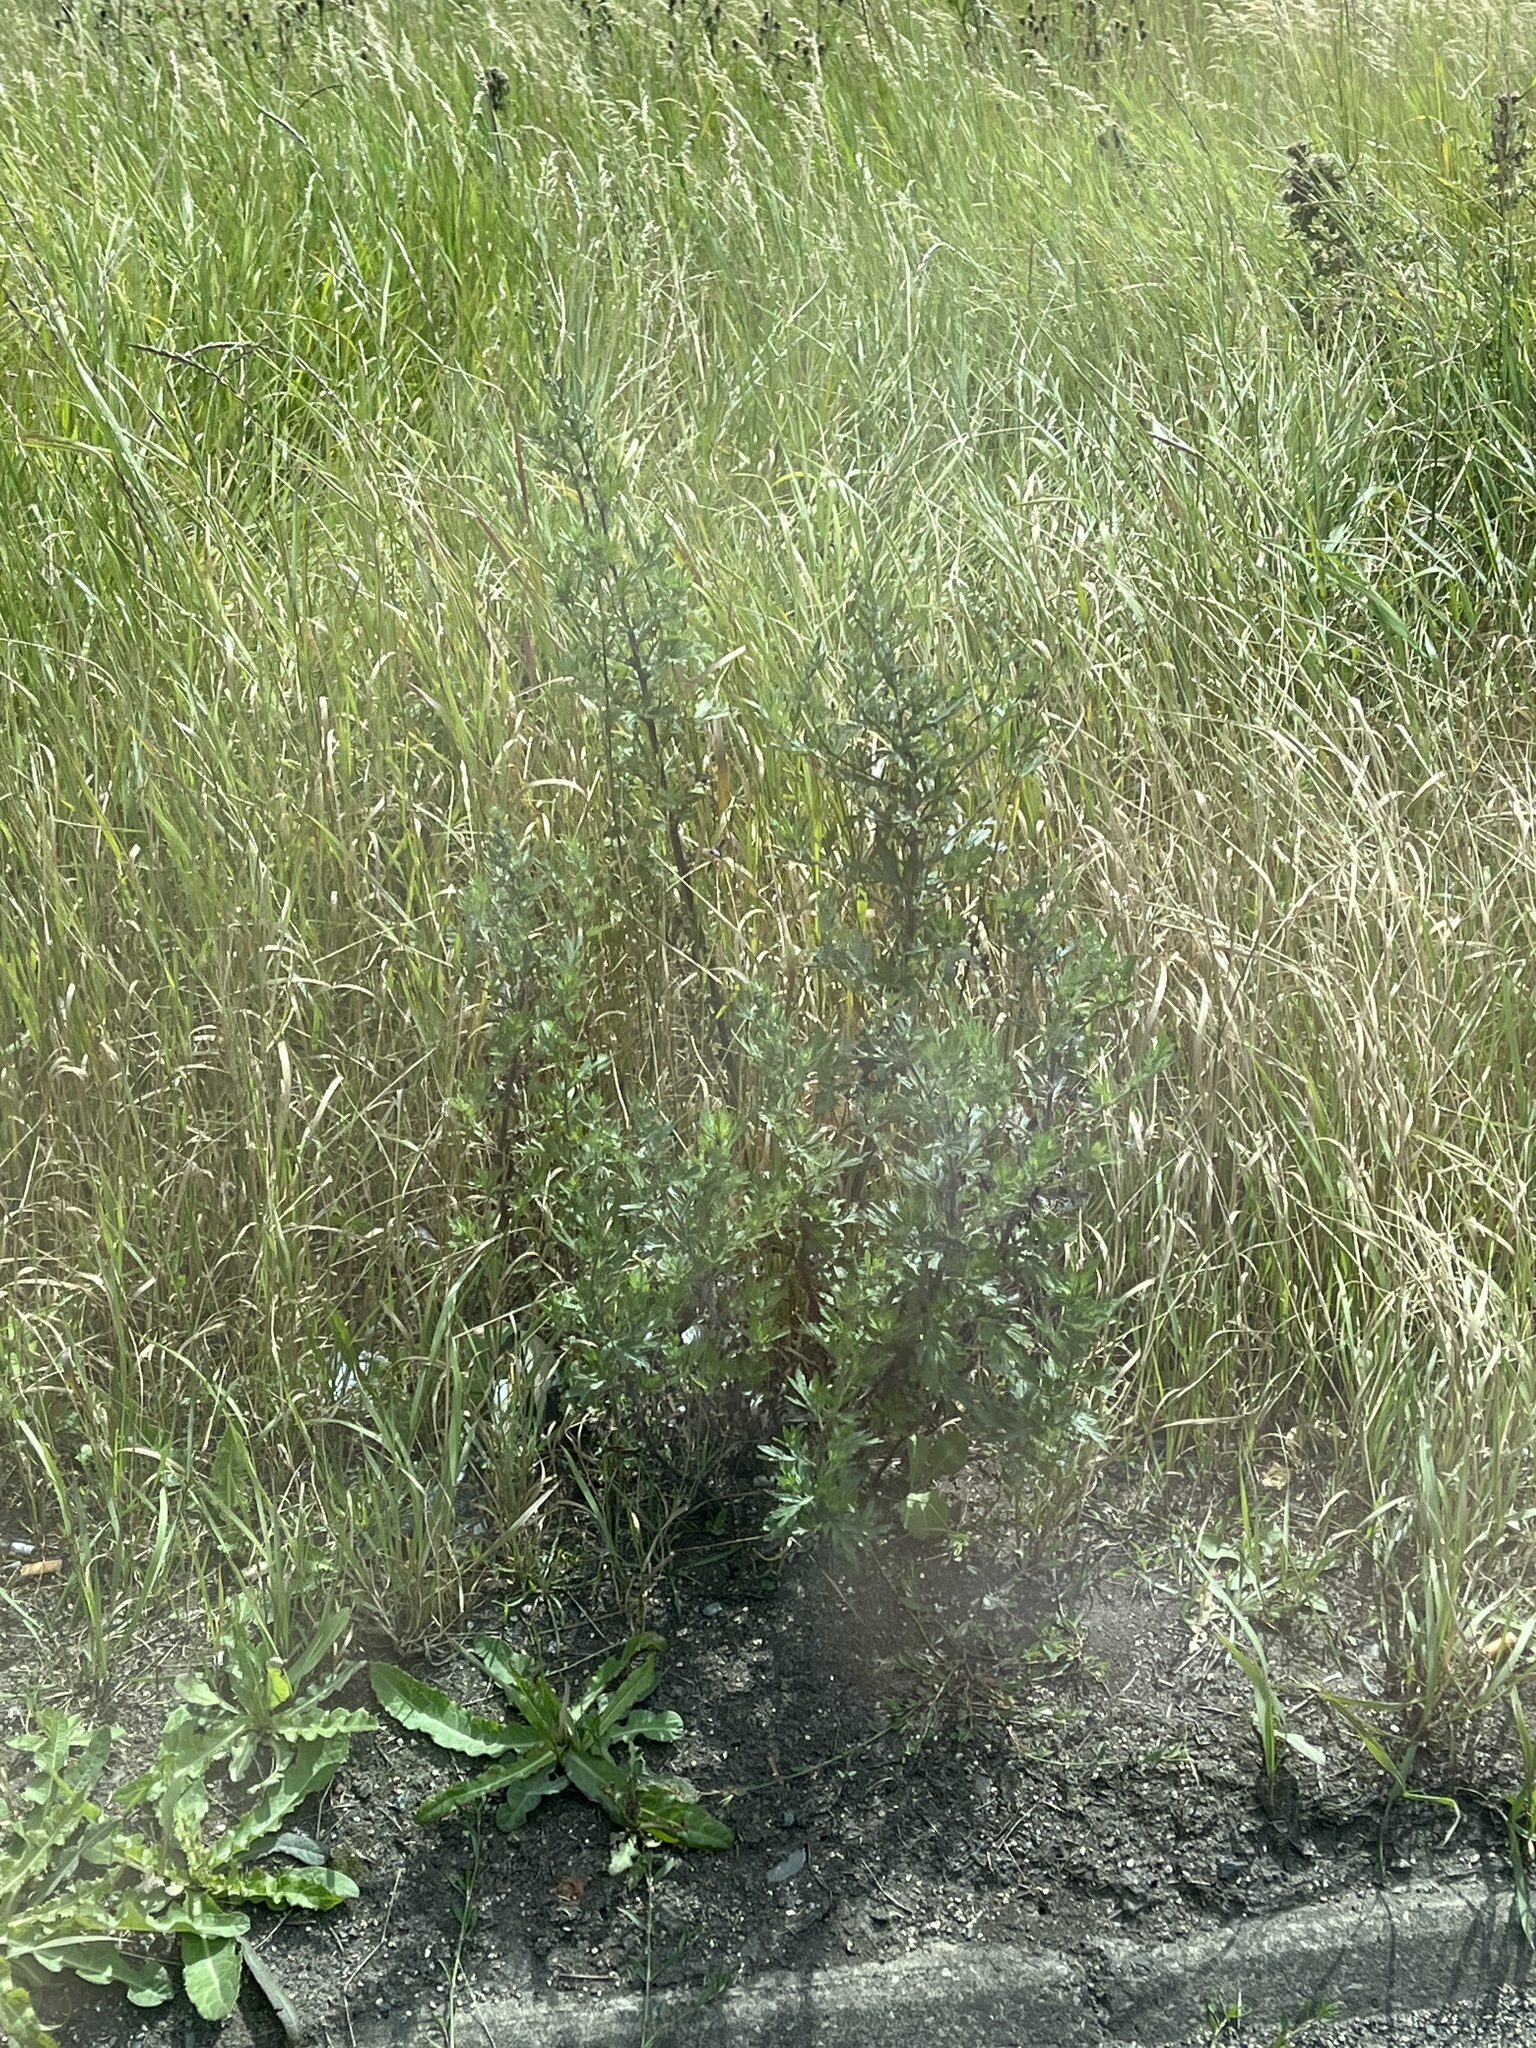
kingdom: Plantae
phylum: Tracheophyta
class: Magnoliopsida
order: Asterales
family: Asteraceae
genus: Artemisia
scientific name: Artemisia vulgaris
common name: Mugwort
